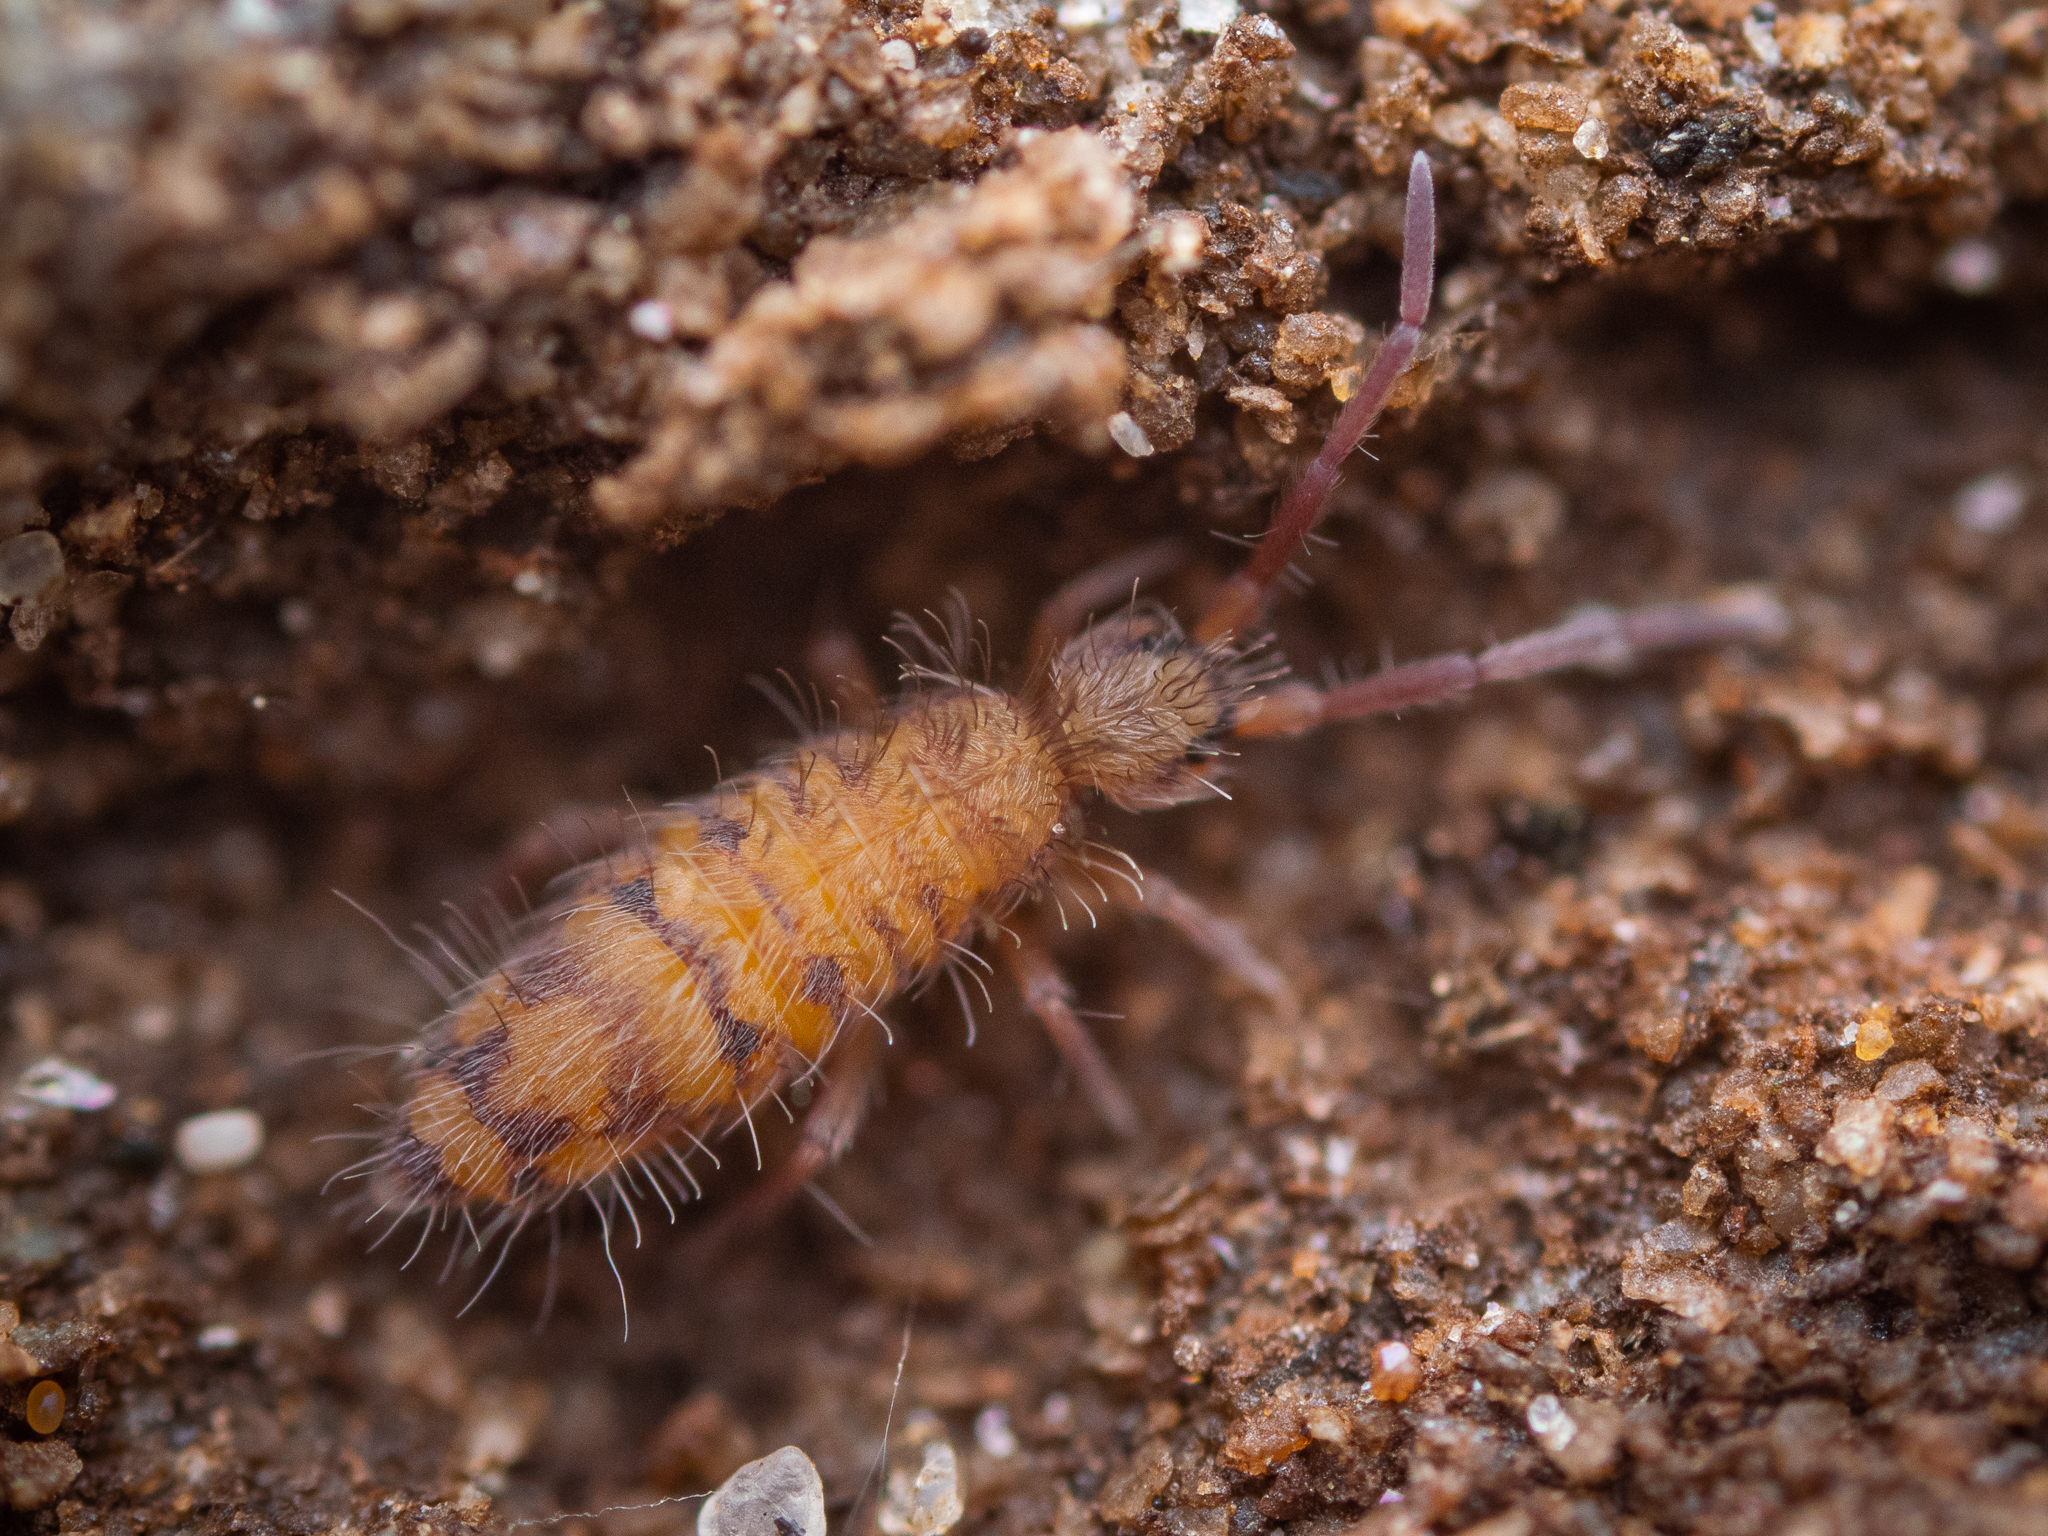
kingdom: Animalia
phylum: Arthropoda
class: Collembola
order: Entomobryomorpha
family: Entomobryidae
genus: Entomobrya
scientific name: Entomobrya multifasciata
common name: Springtail
